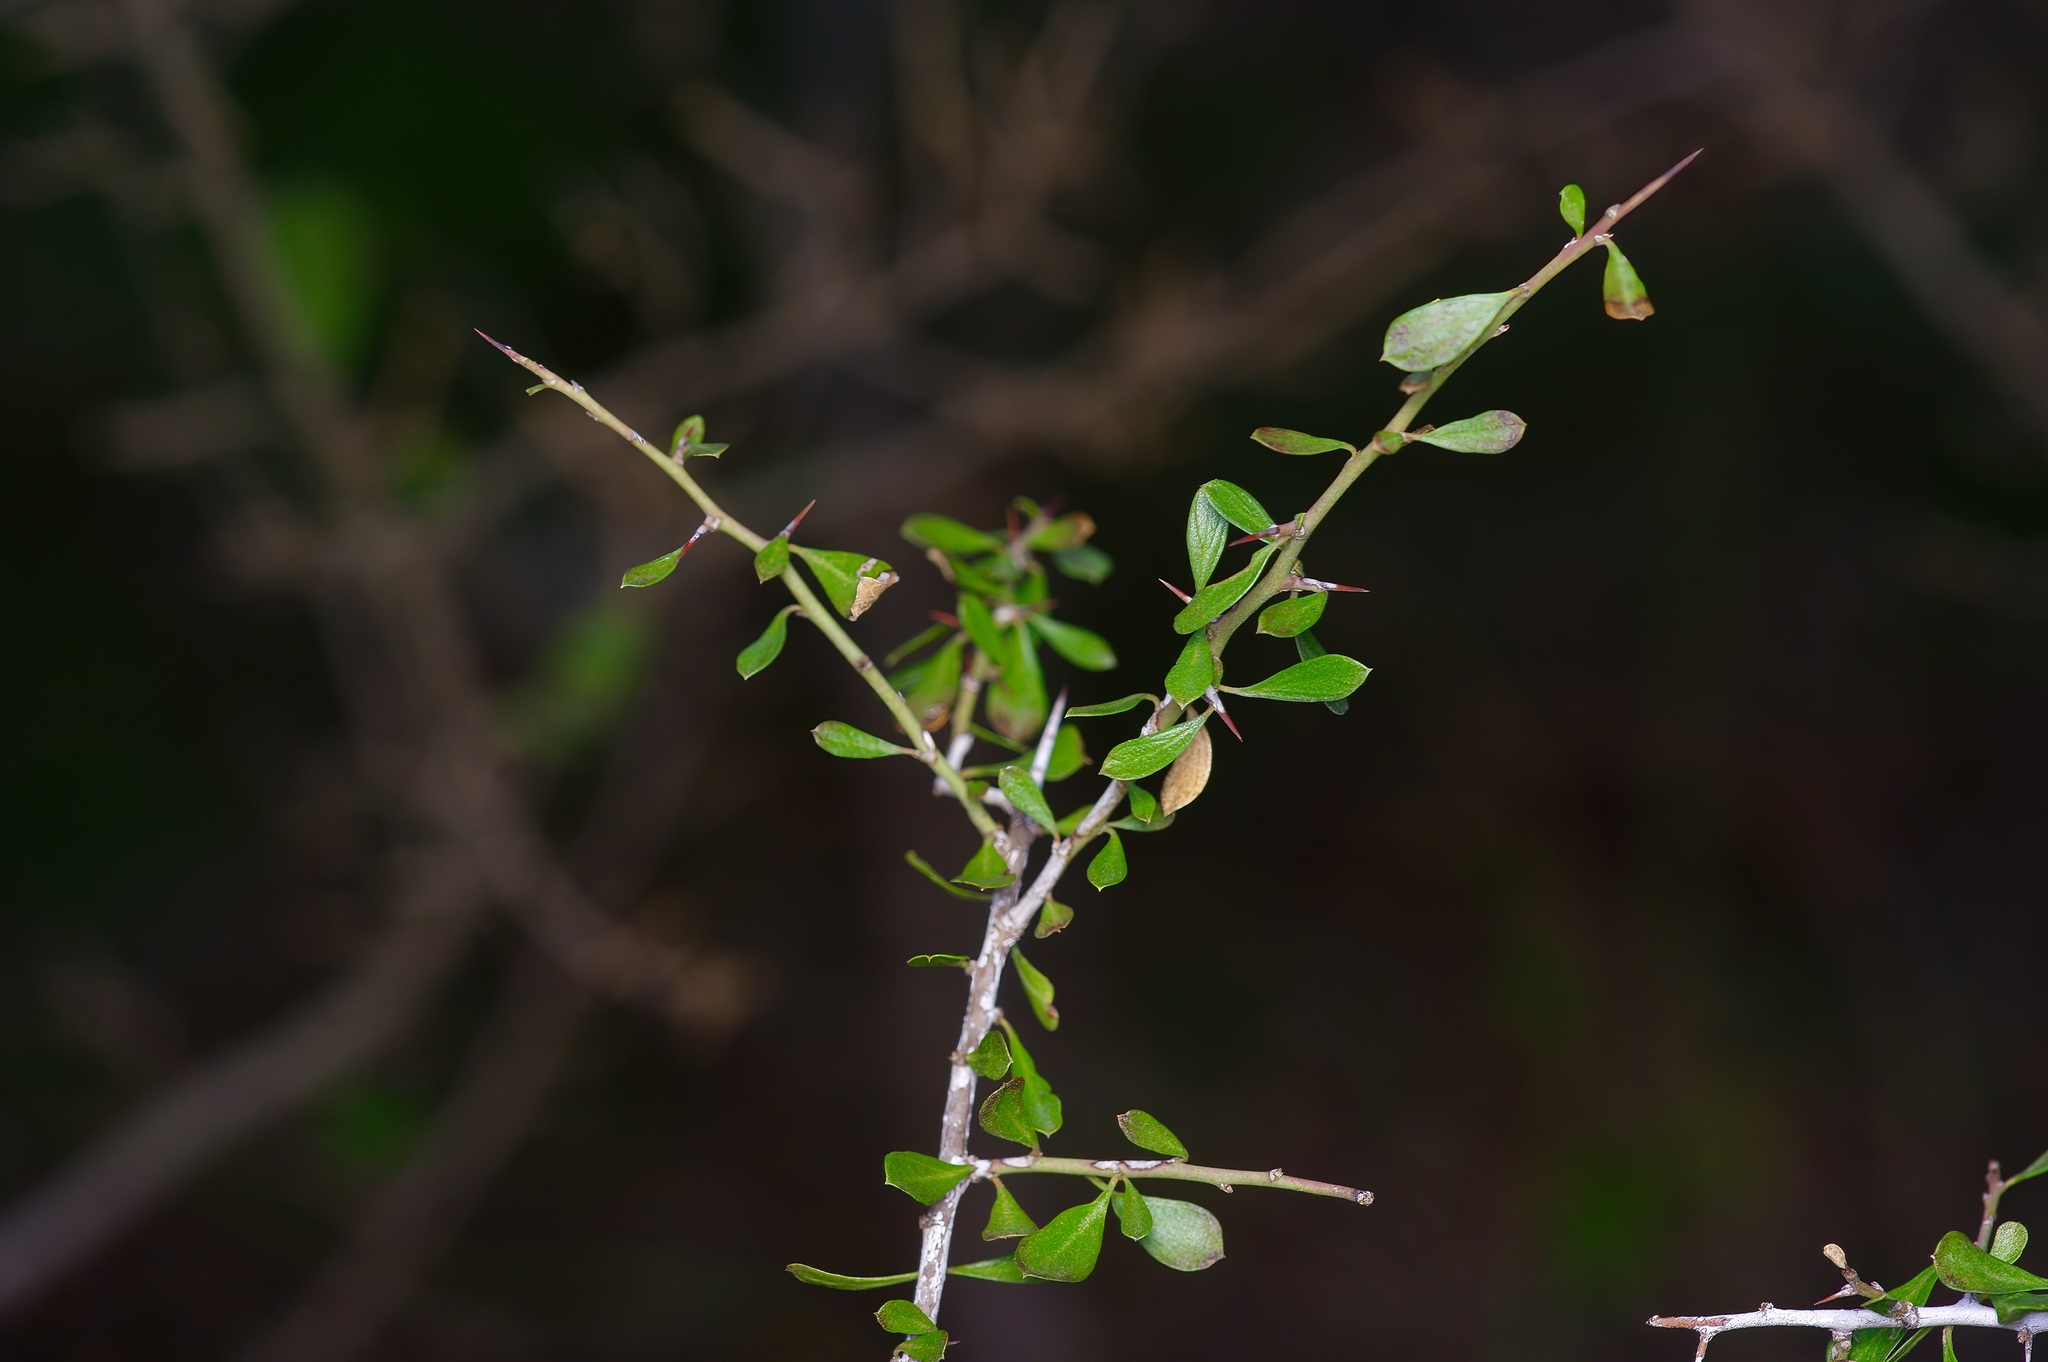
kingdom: Plantae
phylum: Tracheophyta
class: Magnoliopsida
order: Rosales
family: Rhamnaceae
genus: Condalia
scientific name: Condalia viridis
